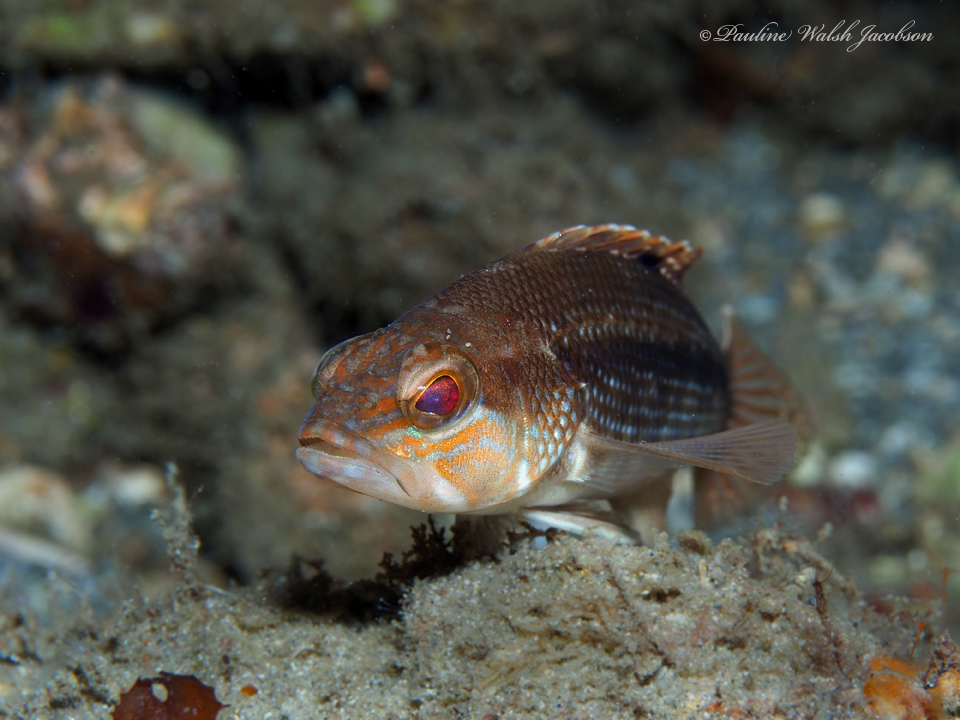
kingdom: Animalia
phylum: Chordata
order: Perciformes
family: Serranidae
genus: Centropristis
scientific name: Centropristis striata
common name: Black sea bass
